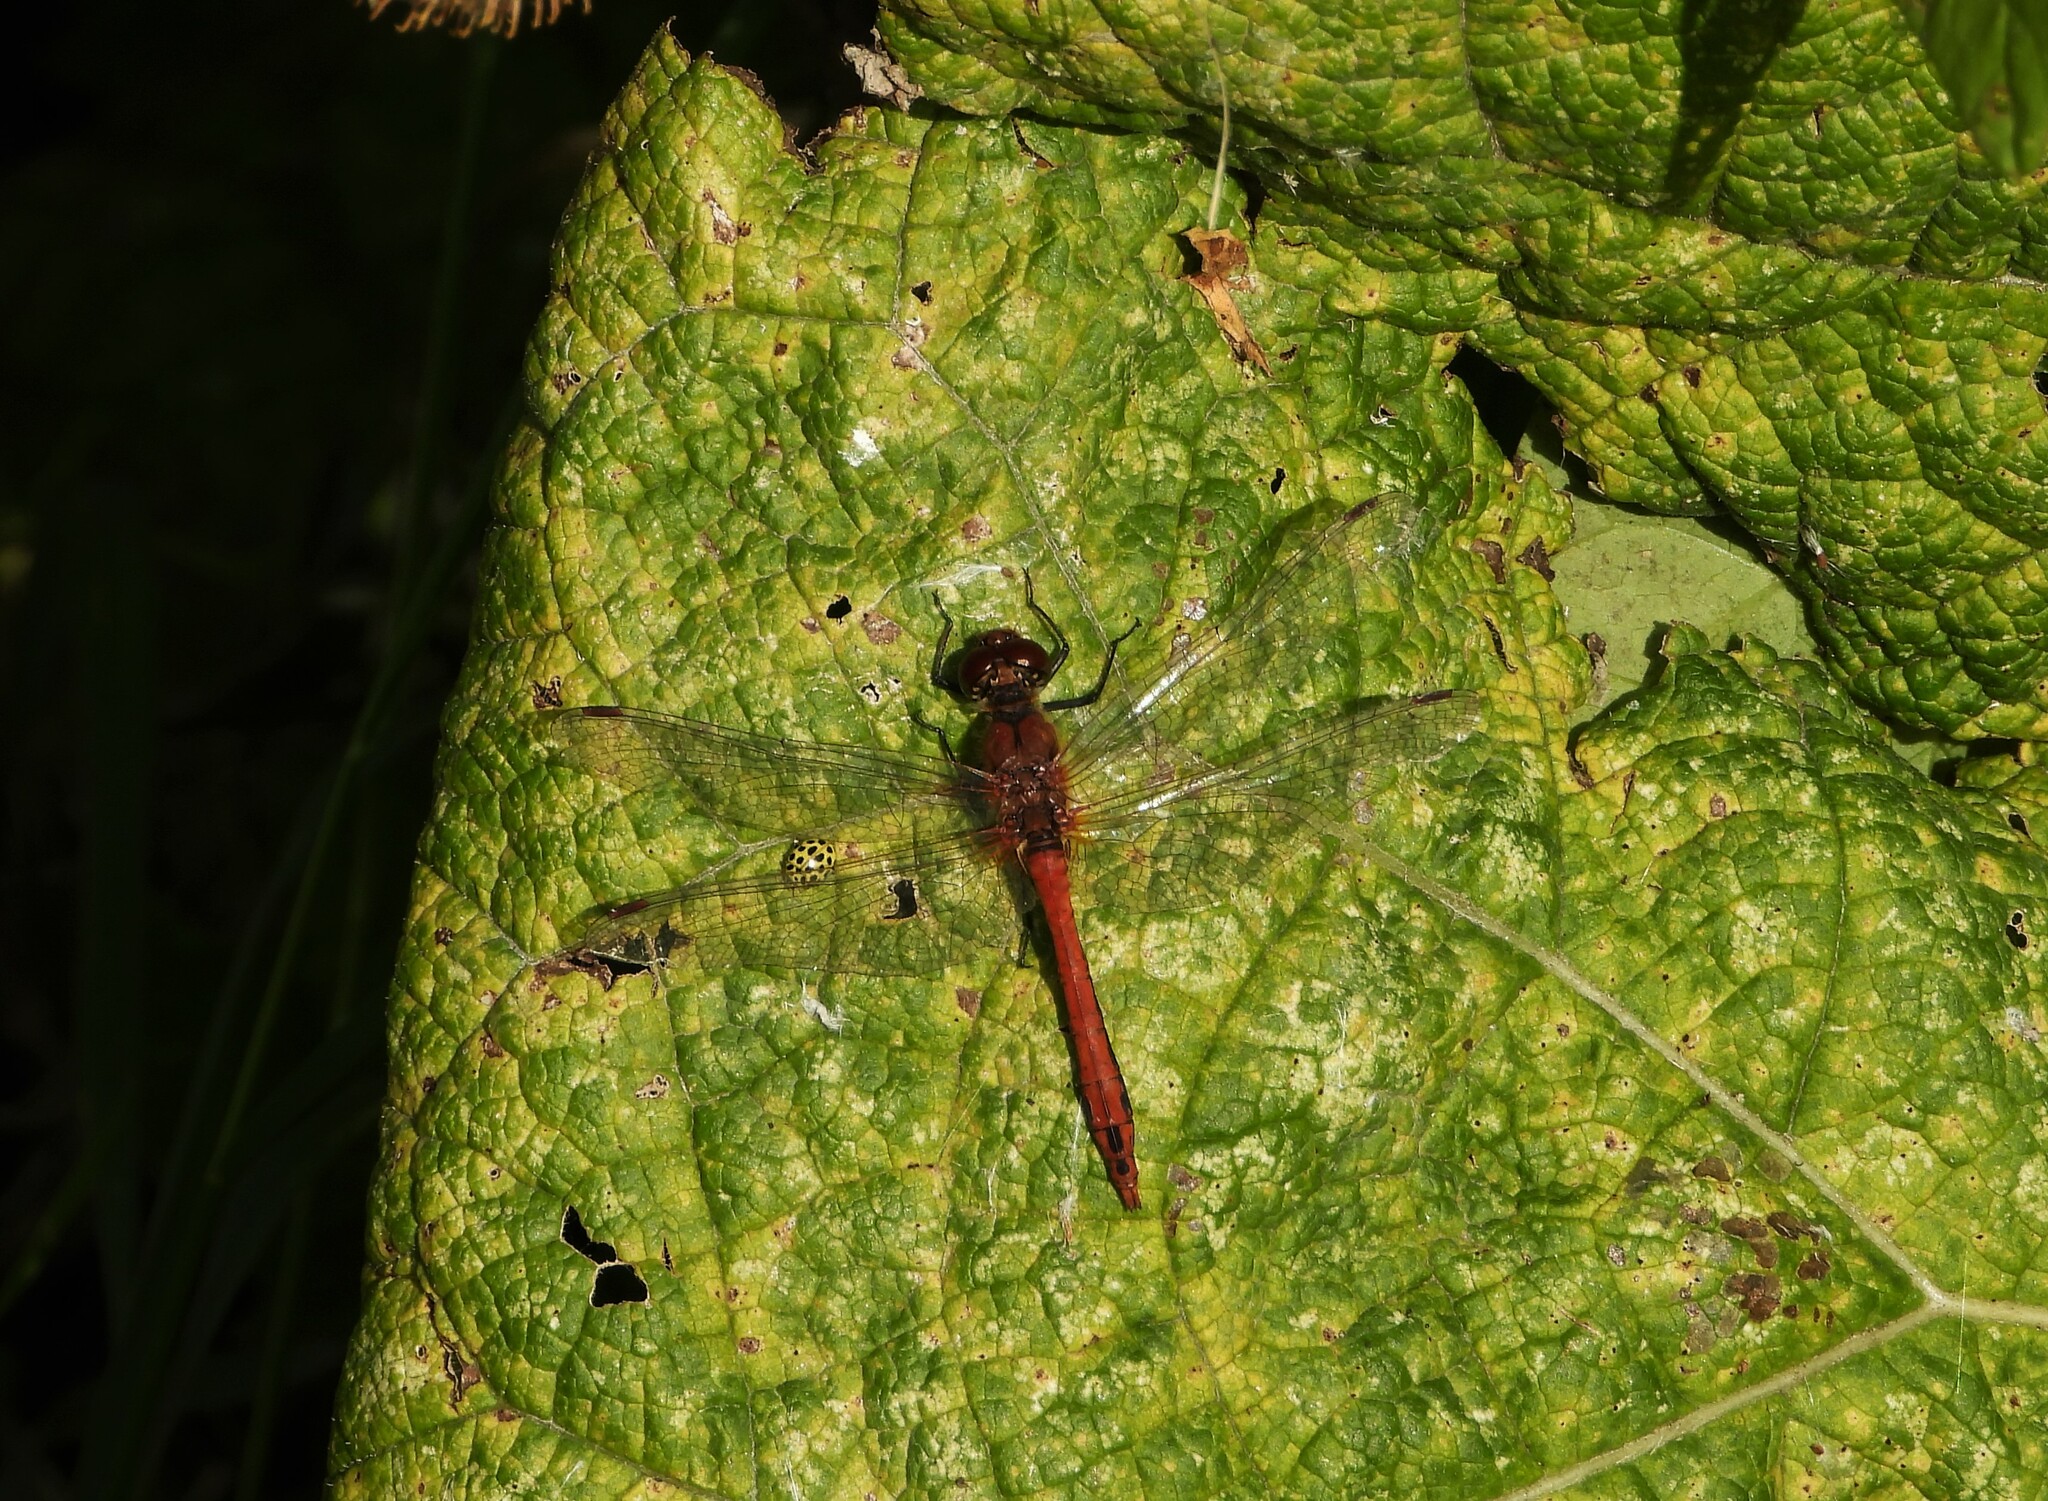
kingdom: Animalia
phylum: Arthropoda
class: Insecta
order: Odonata
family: Libellulidae
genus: Sympetrum
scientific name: Sympetrum sanguineum
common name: Ruddy darter
